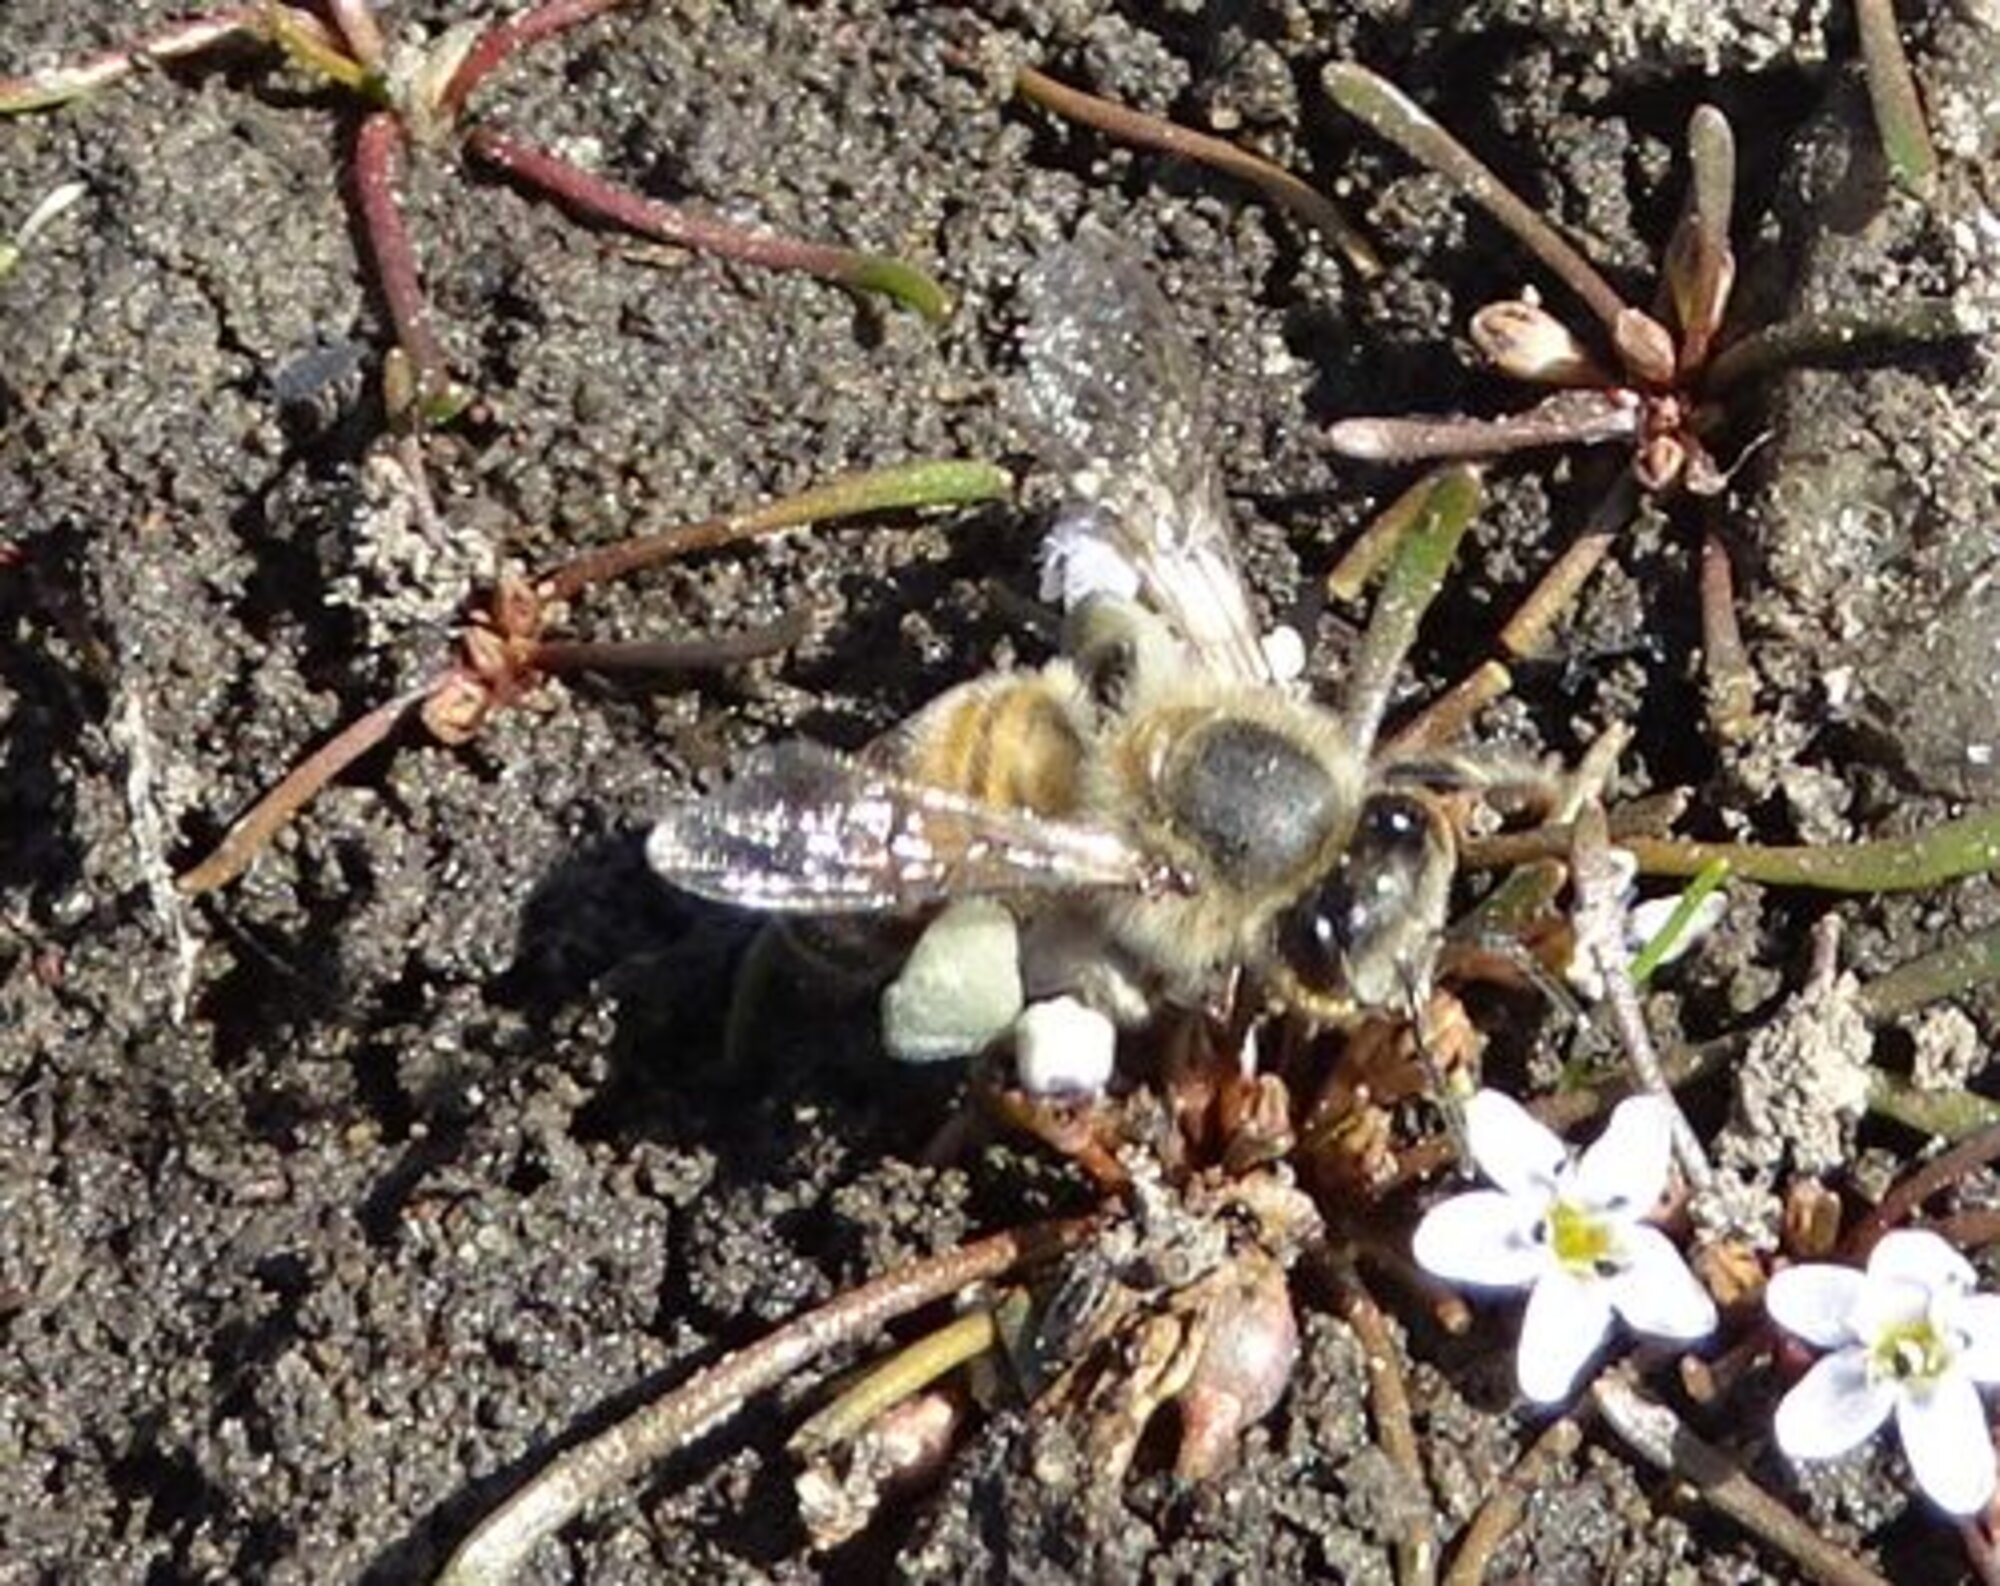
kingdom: Animalia
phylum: Arthropoda
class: Insecta
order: Hymenoptera
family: Apidae
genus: Apis
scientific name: Apis mellifera
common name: Honey bee
